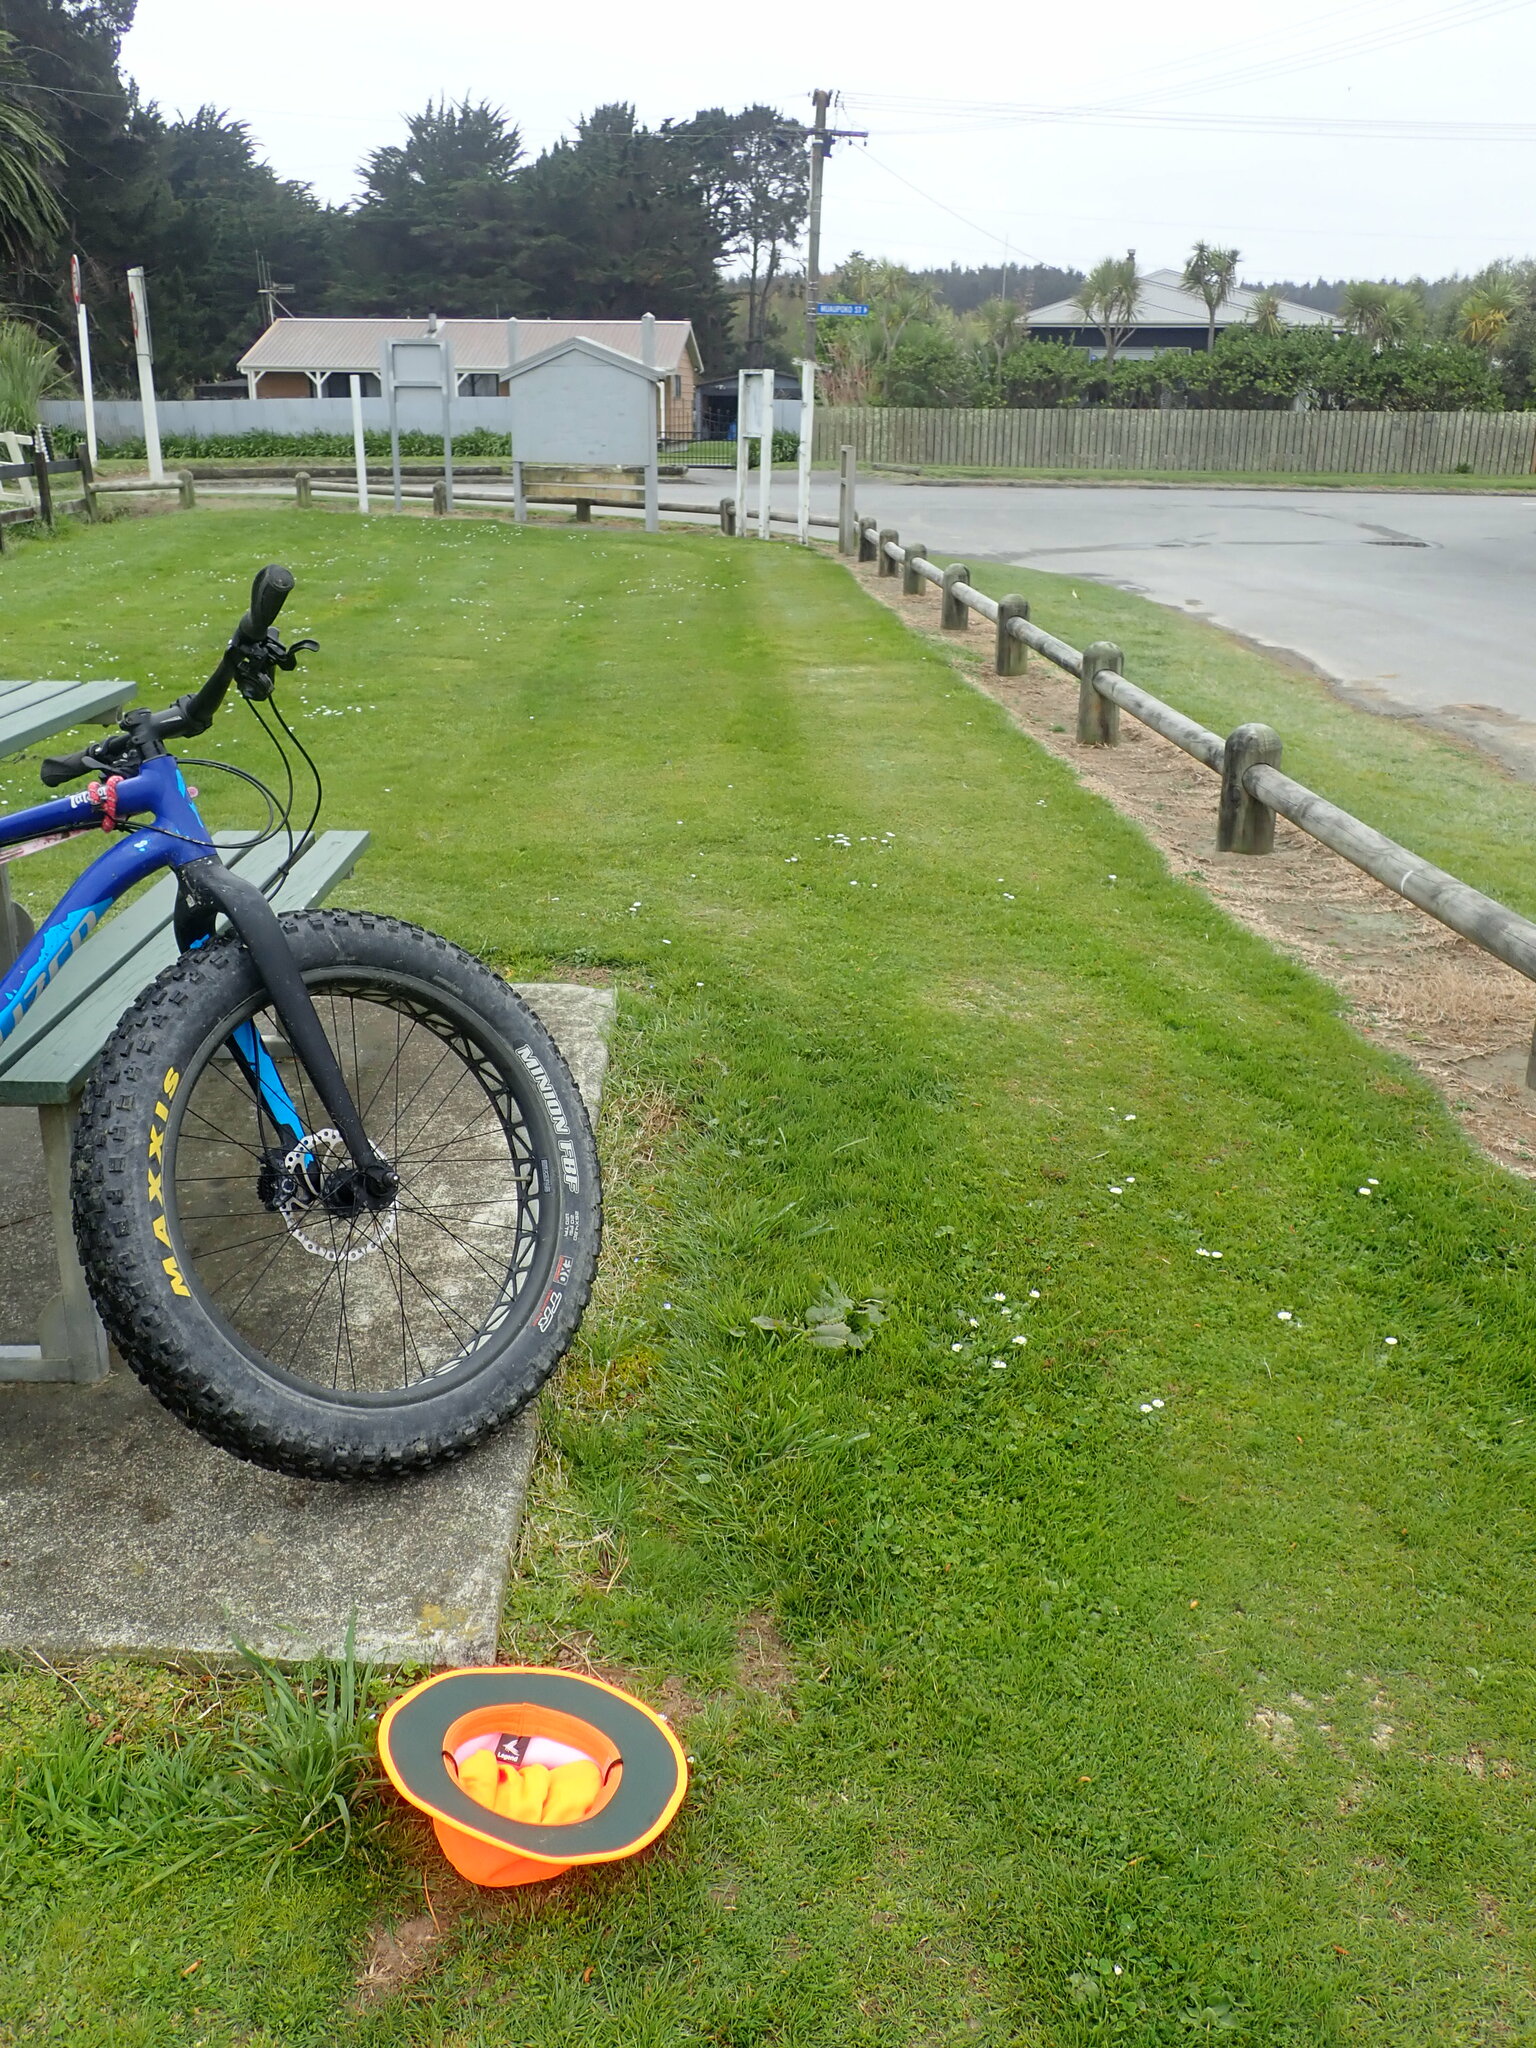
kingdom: Plantae
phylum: Tracheophyta
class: Magnoliopsida
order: Lamiales
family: Plantaginaceae
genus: Veronica
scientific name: Veronica persica
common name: Common field-speedwell
